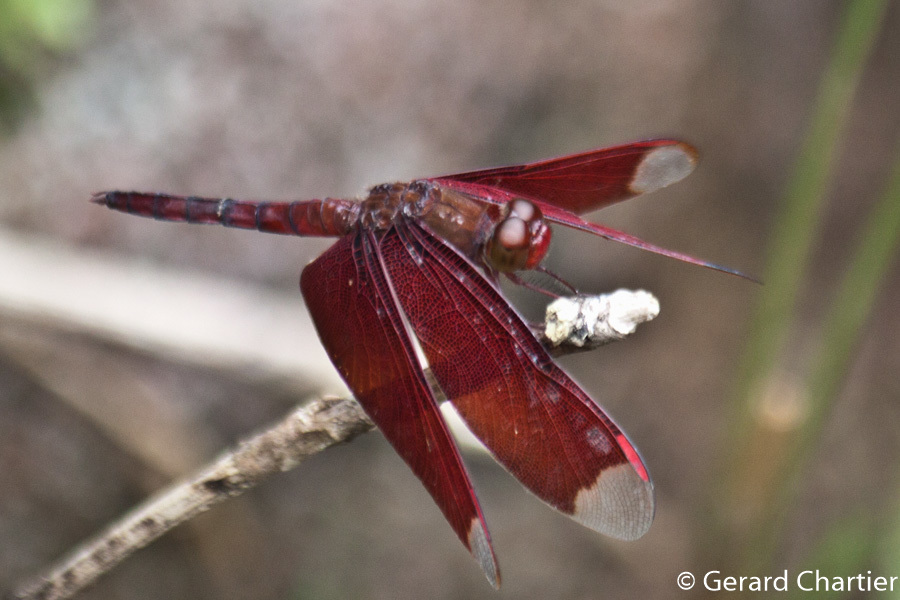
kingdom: Animalia
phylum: Arthropoda
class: Insecta
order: Odonata
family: Libellulidae
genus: Neurothemis
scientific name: Neurothemis fulvia
